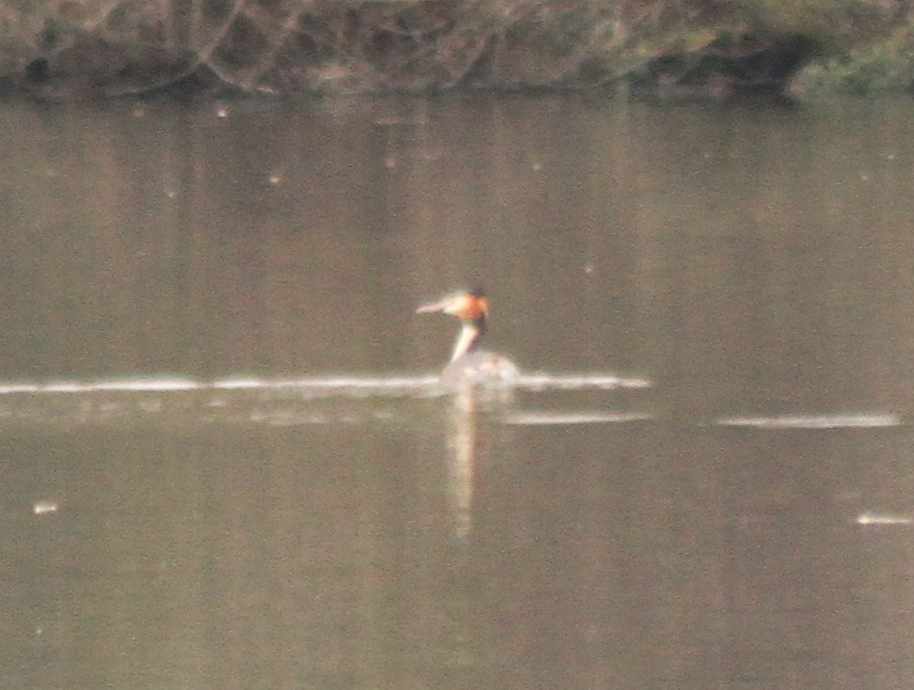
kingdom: Animalia
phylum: Chordata
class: Aves
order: Podicipediformes
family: Podicipedidae
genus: Podiceps
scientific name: Podiceps cristatus
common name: Great crested grebe
